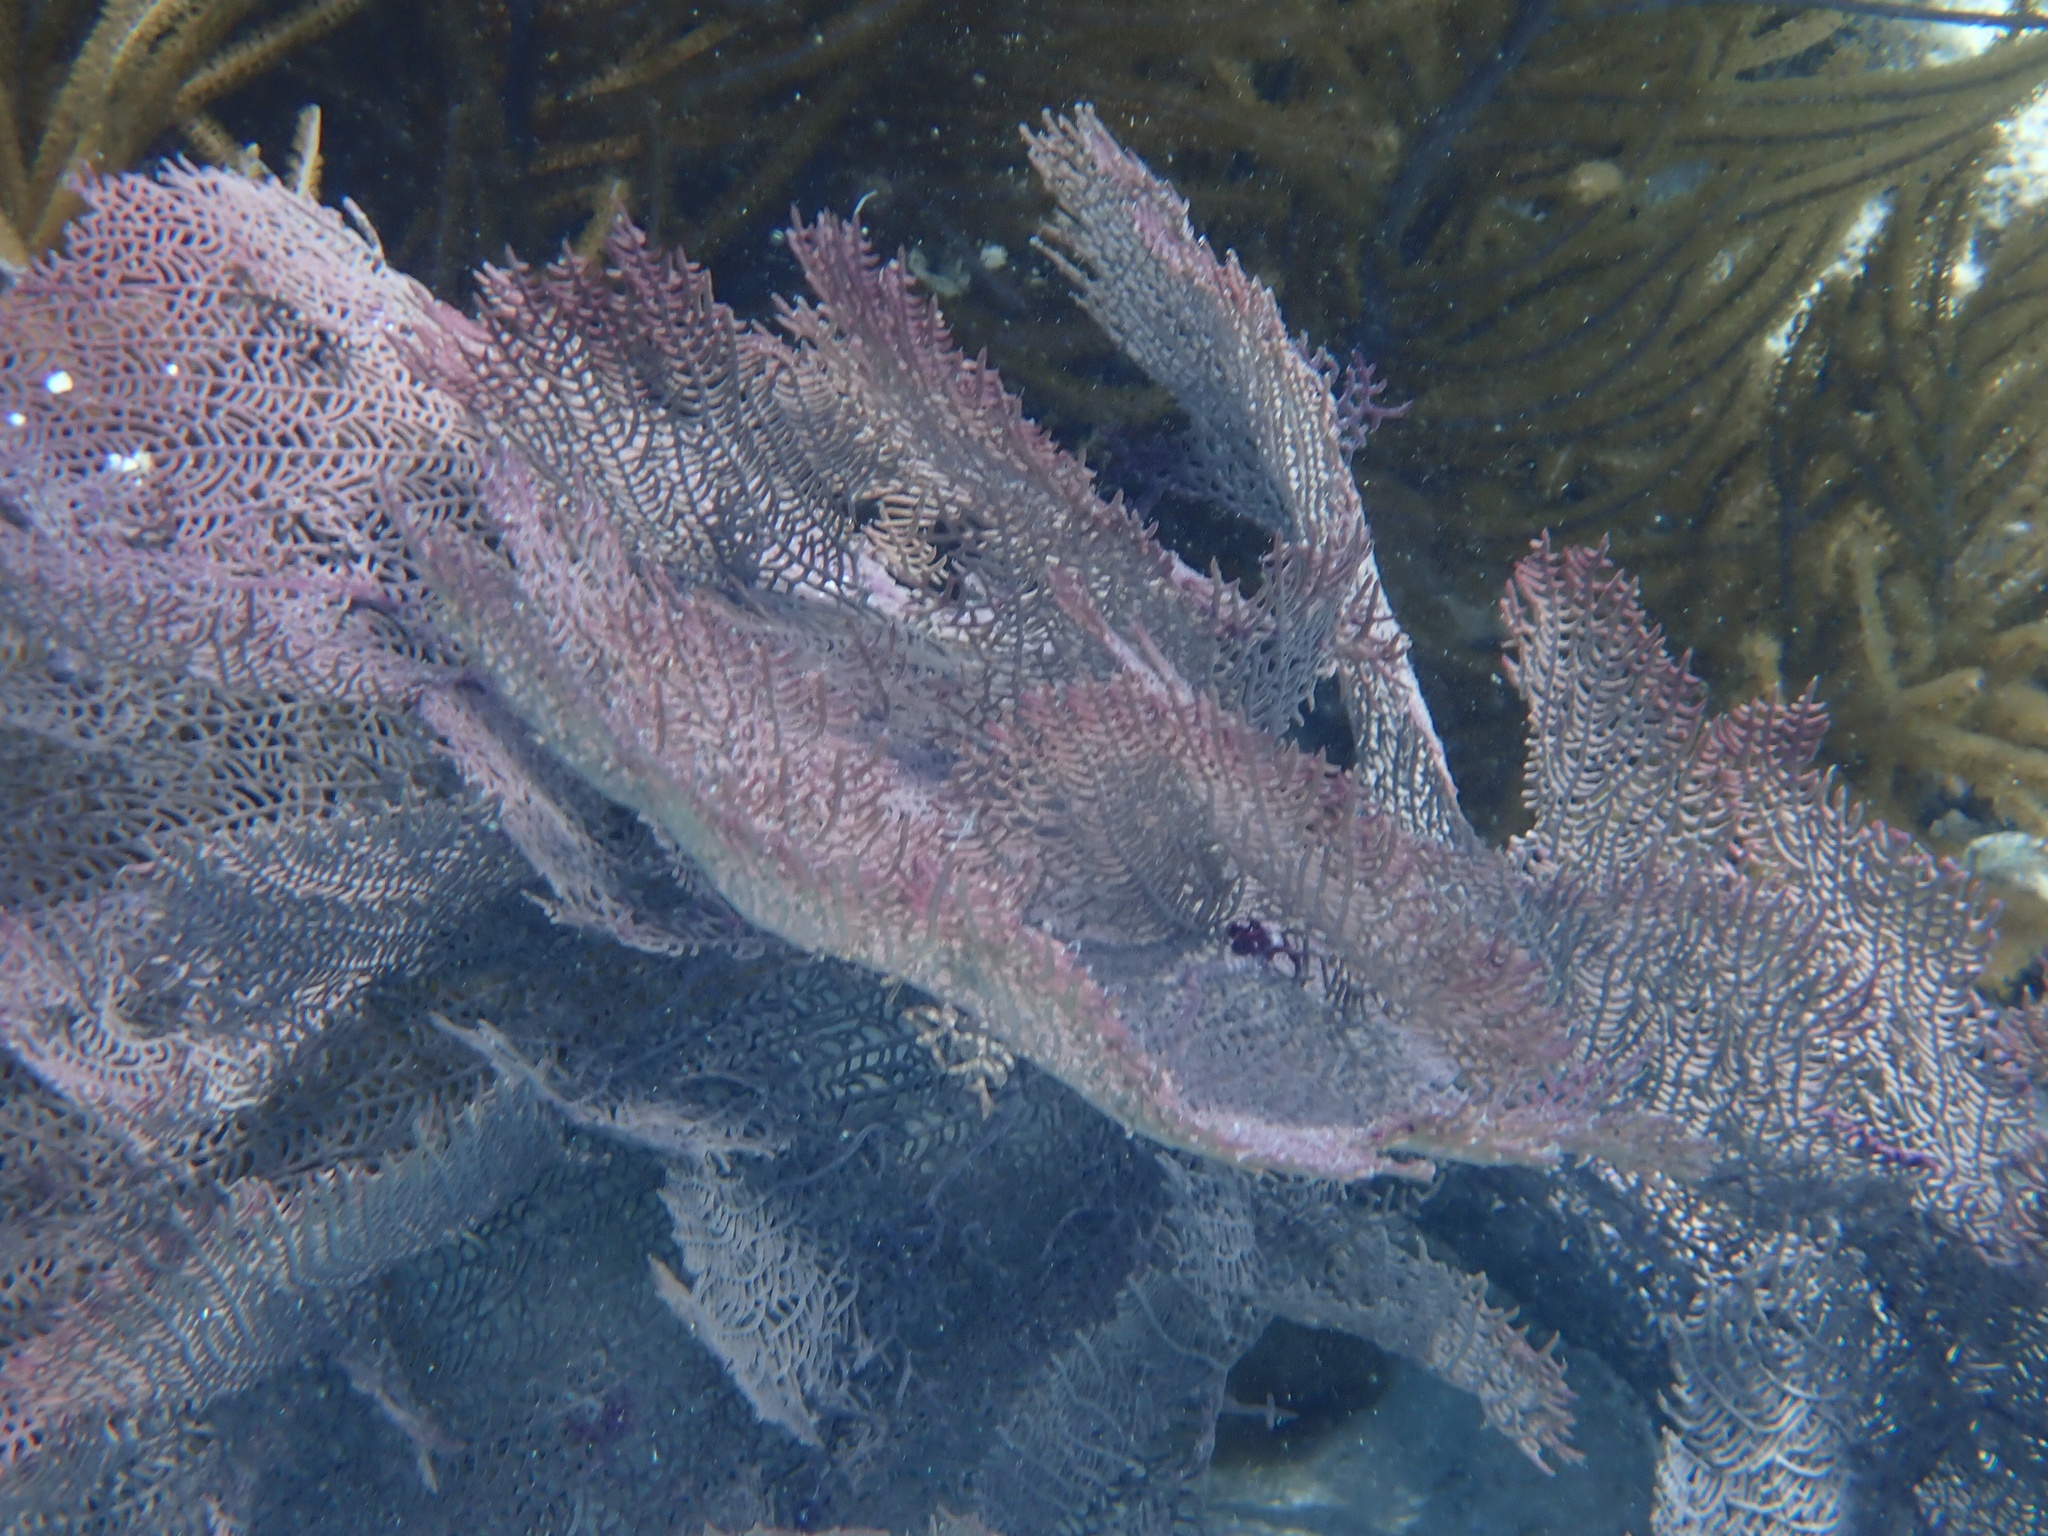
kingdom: Animalia
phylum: Cnidaria
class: Anthozoa
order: Malacalcyonacea
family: Gorgoniidae
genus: Gorgonia
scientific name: Gorgonia ventalina
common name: Common sea fan
